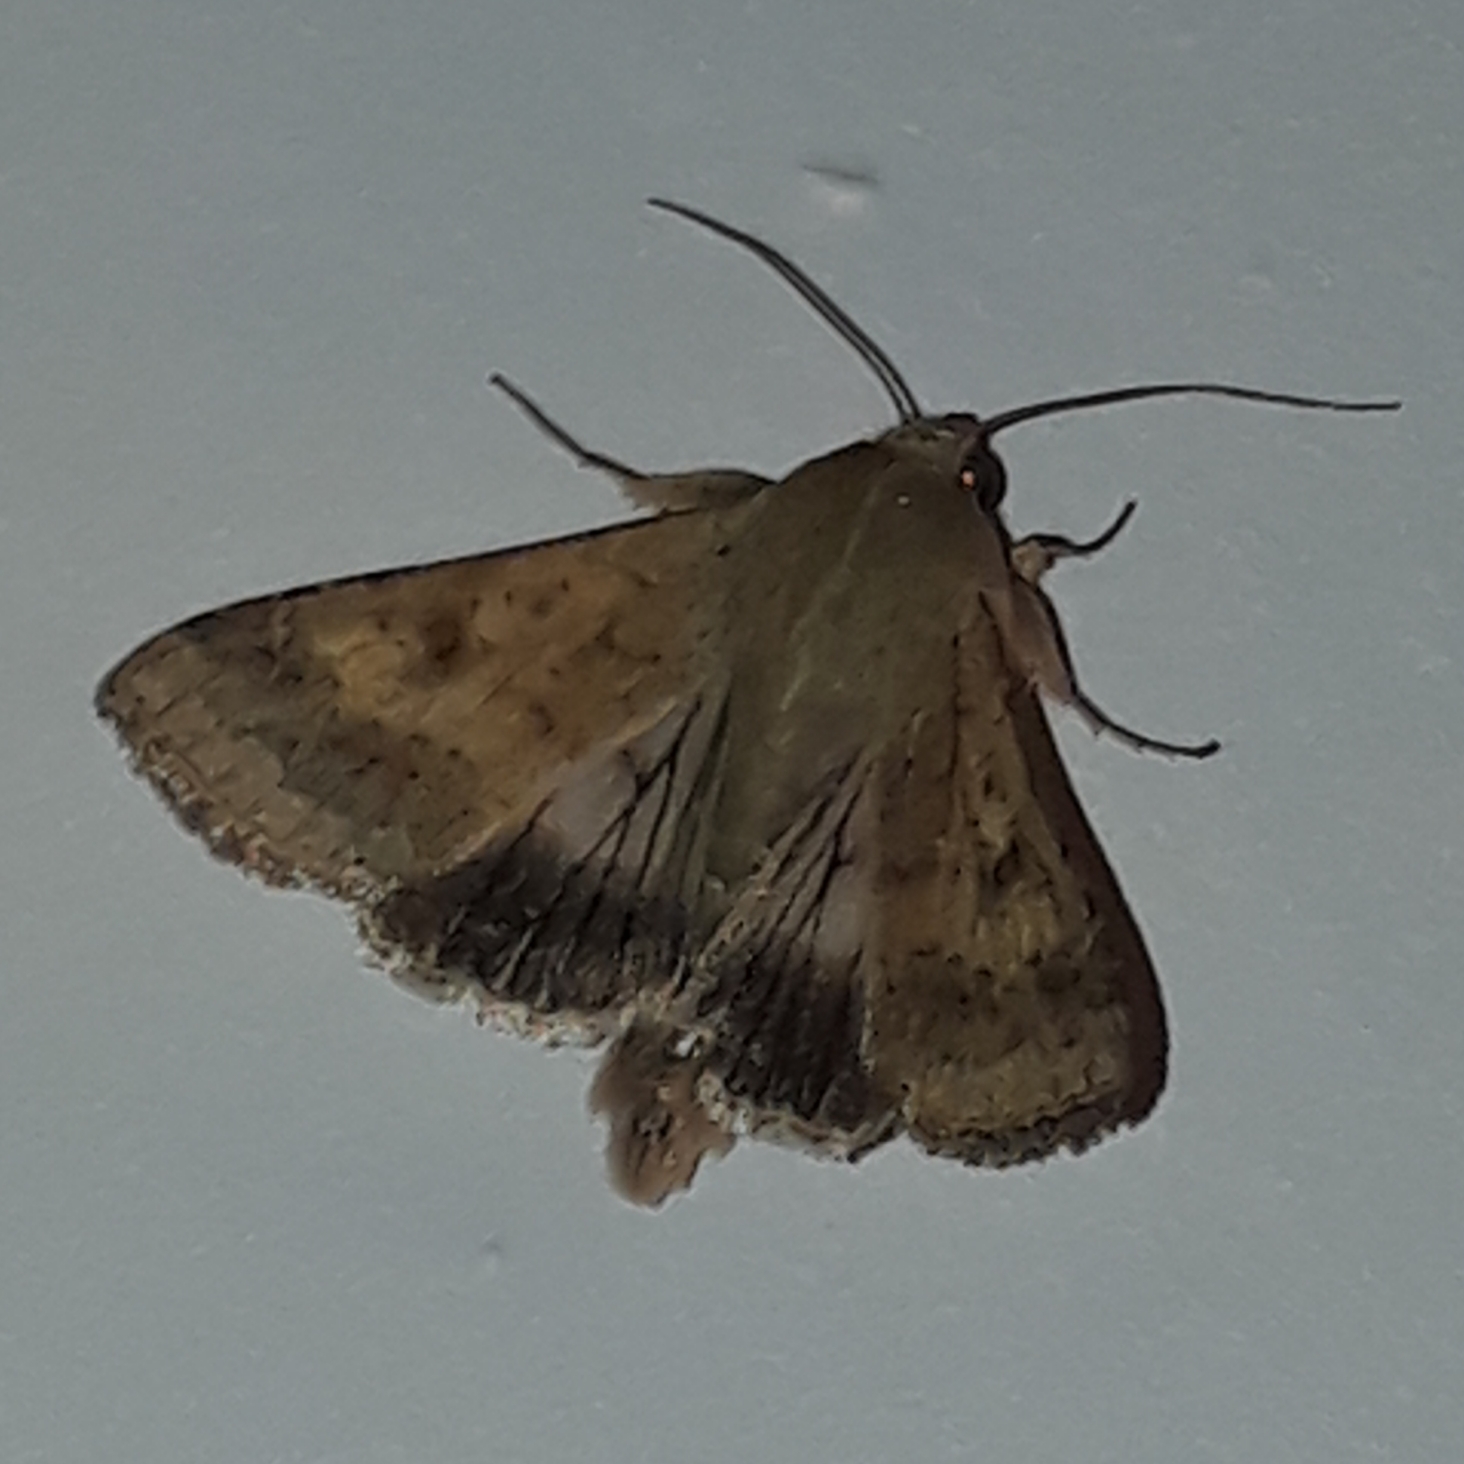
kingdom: Animalia
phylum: Arthropoda
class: Insecta
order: Lepidoptera
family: Noctuidae
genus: Helicoverpa
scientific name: Helicoverpa armigera
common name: Cotton bollworm
